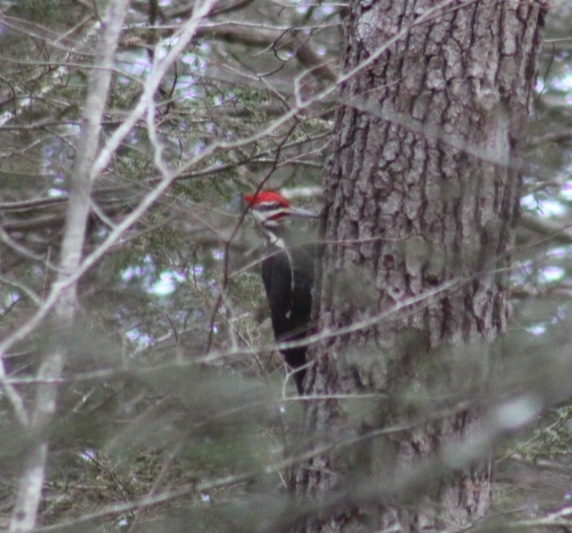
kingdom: Animalia
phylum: Chordata
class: Aves
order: Piciformes
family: Picidae
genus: Dryocopus
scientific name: Dryocopus pileatus
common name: Pileated woodpecker
